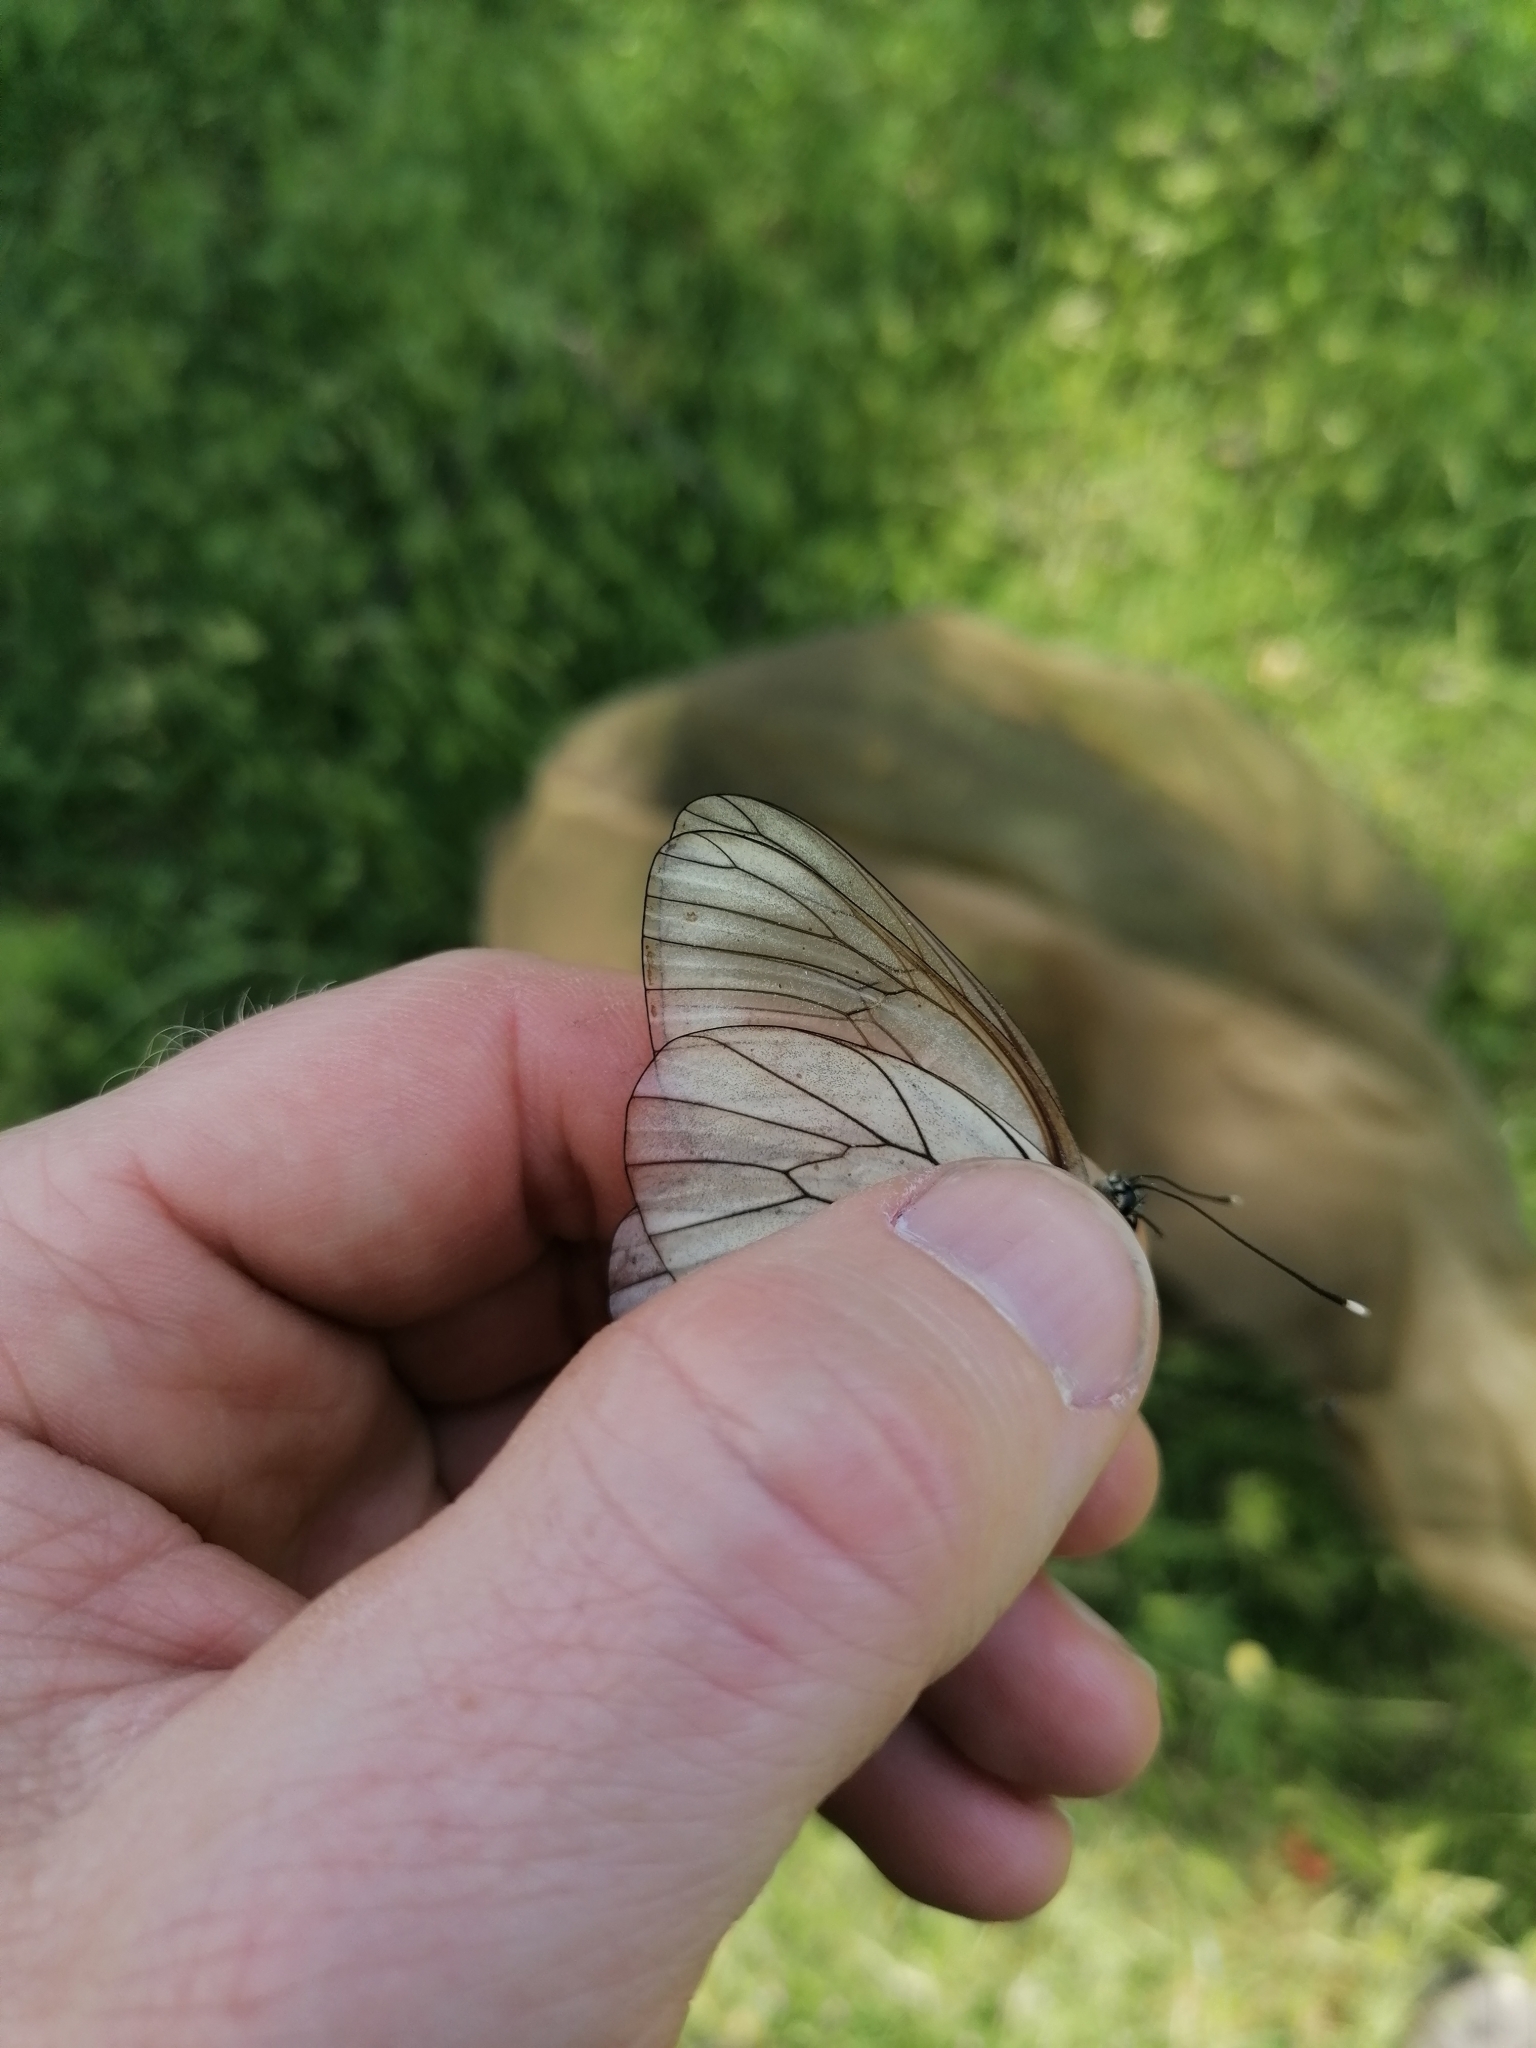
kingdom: Animalia
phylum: Arthropoda
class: Insecta
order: Lepidoptera
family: Pieridae
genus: Aporia
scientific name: Aporia crataegi
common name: Black-veined white
